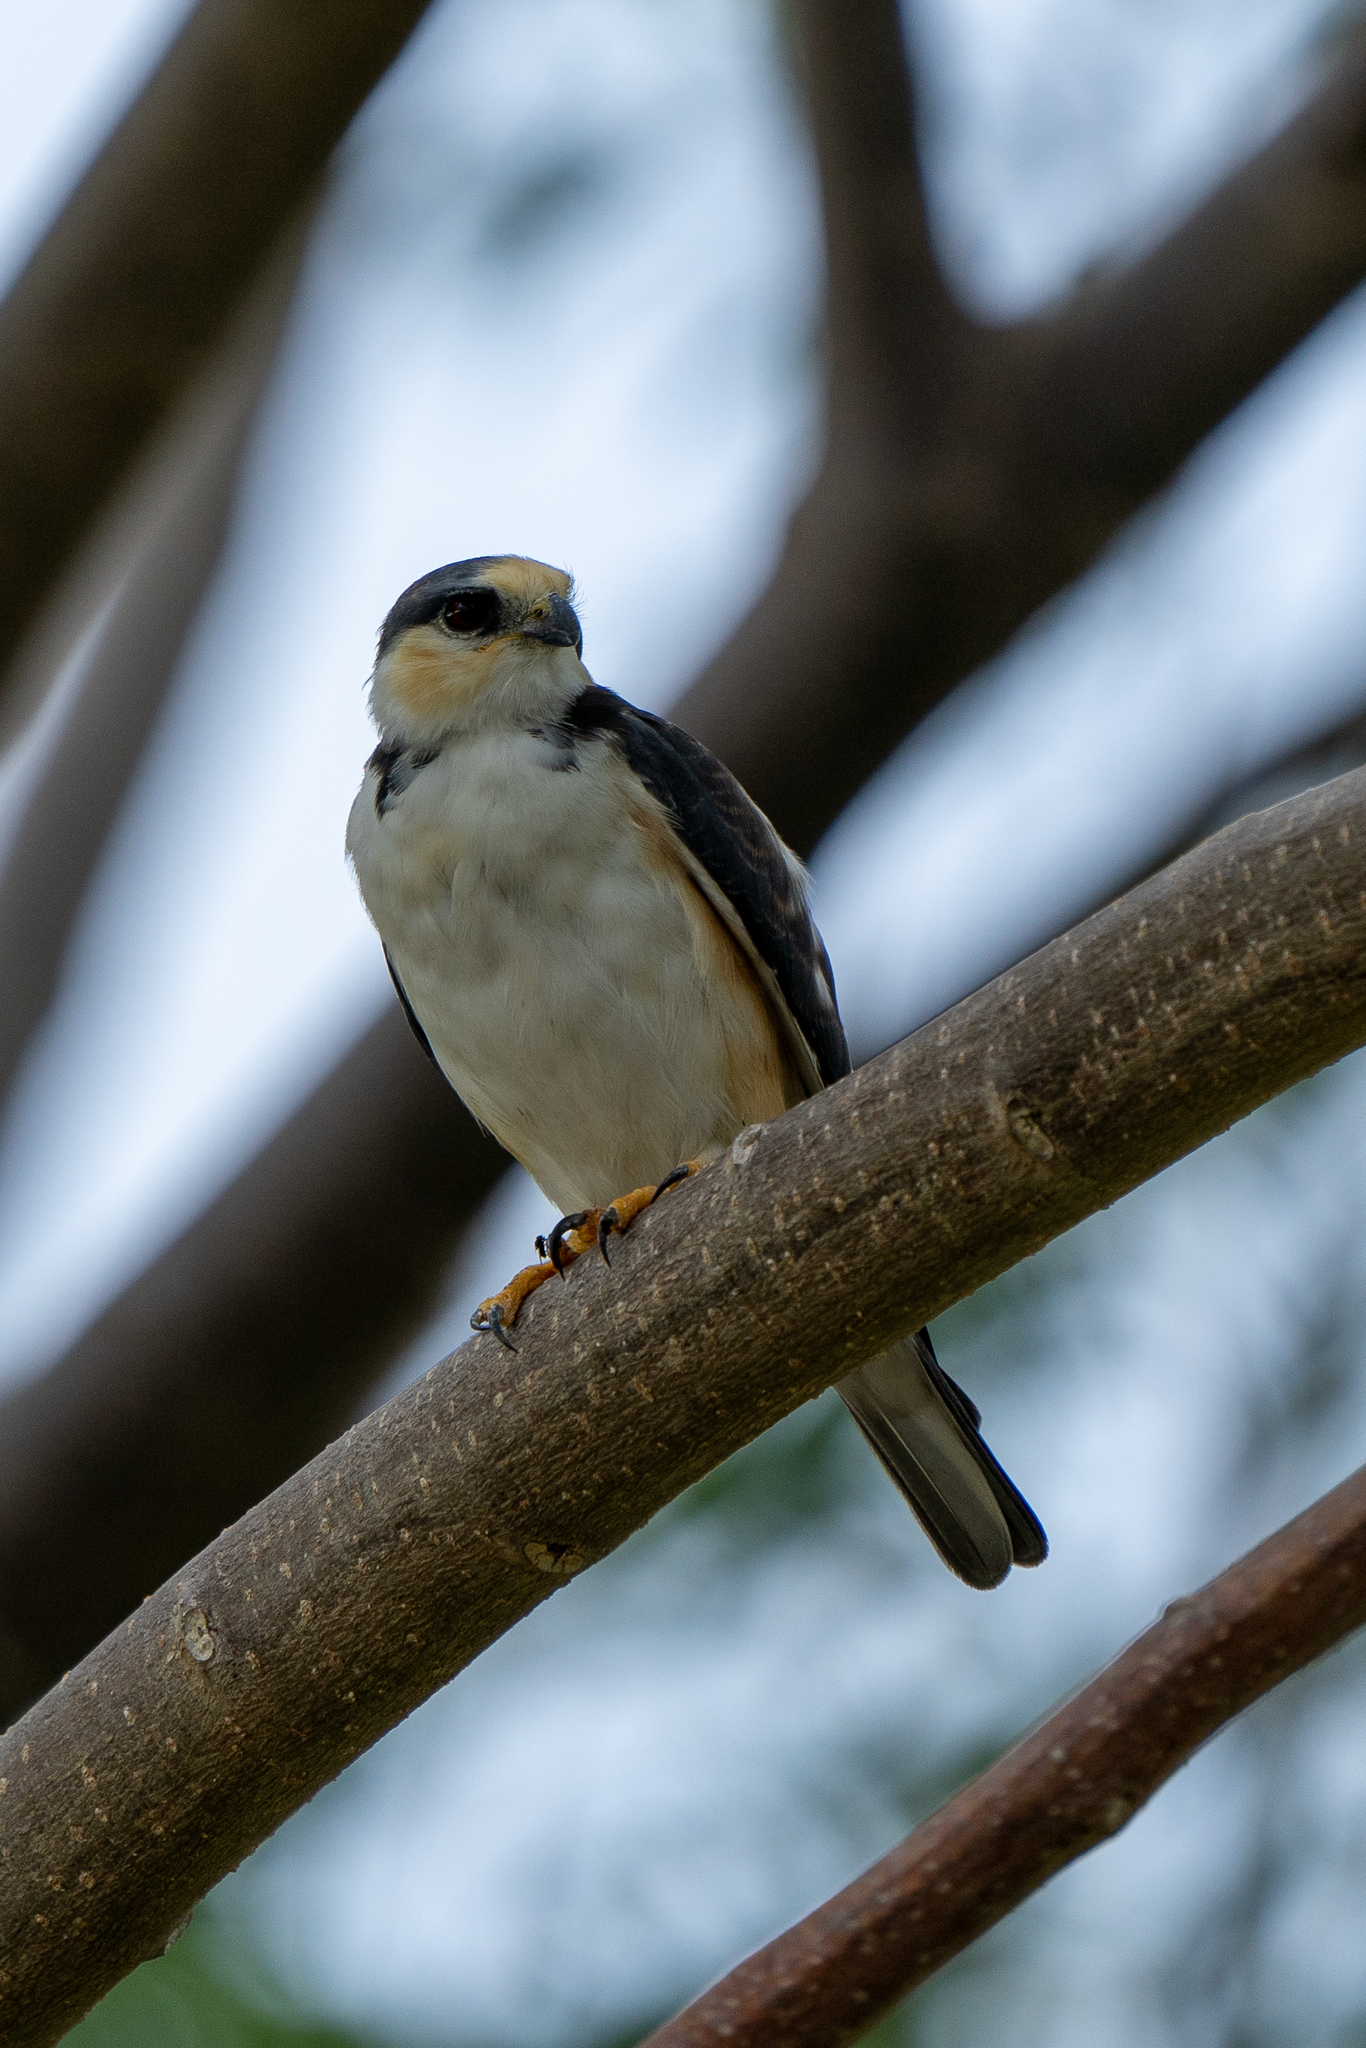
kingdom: Animalia
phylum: Chordata
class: Aves
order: Accipitriformes
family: Accipitridae
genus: Gampsonyx
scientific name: Gampsonyx swainsonii
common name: Pearl kite
